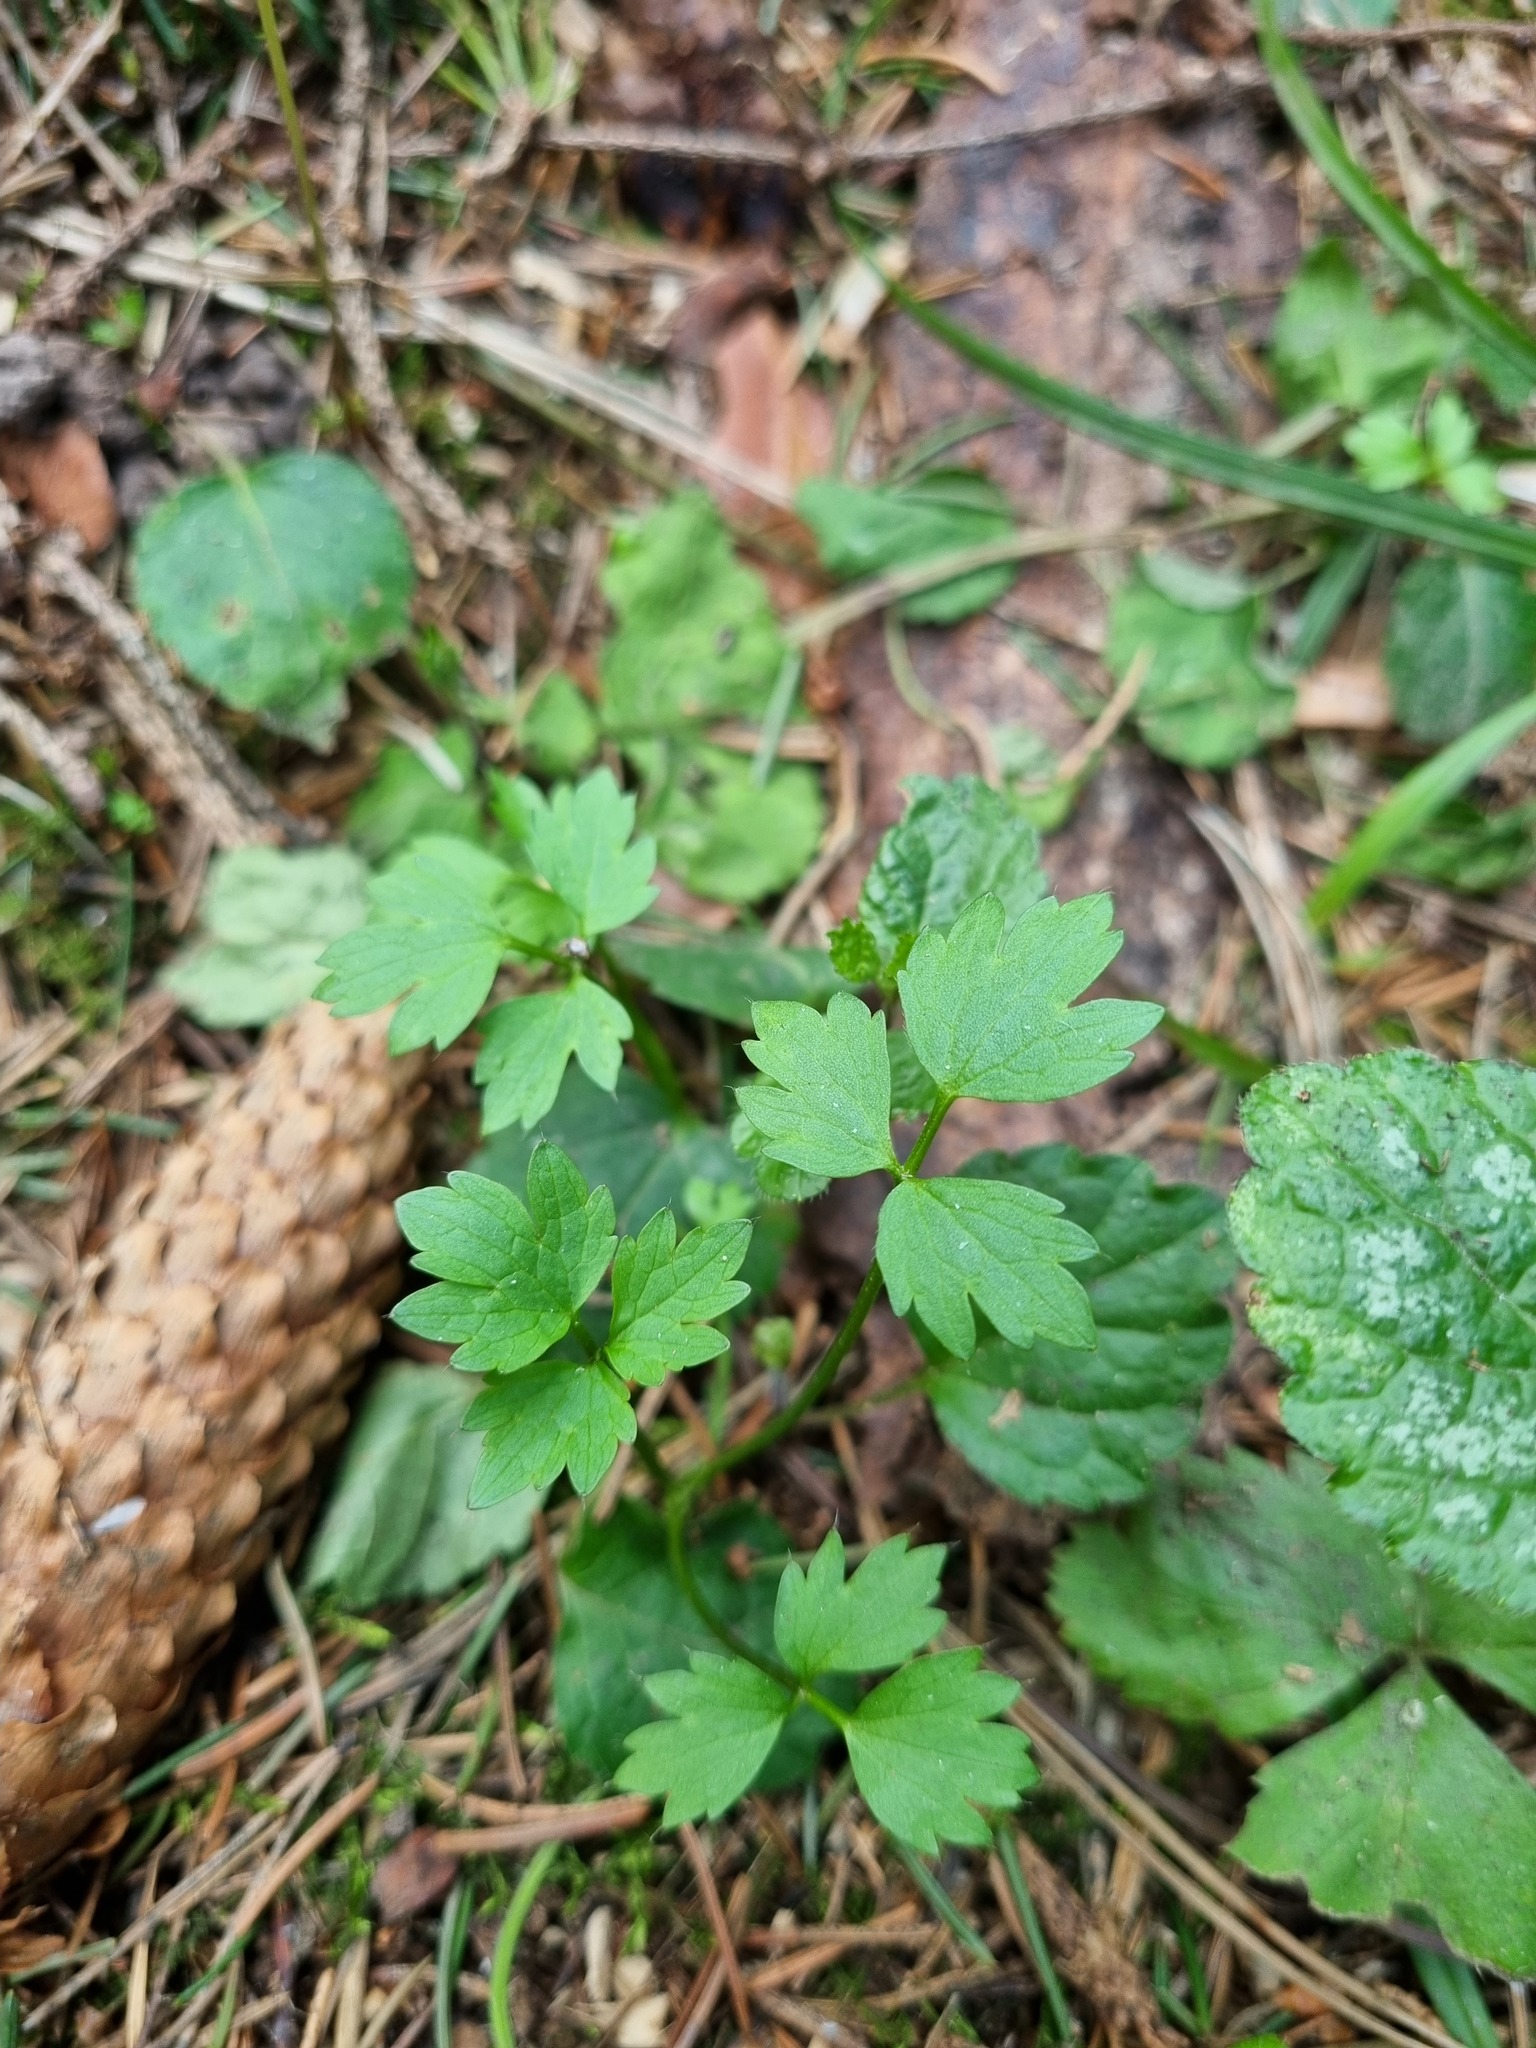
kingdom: Plantae
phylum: Tracheophyta
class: Magnoliopsida
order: Ranunculales
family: Ranunculaceae
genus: Ranunculus
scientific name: Ranunculus repens
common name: Creeping buttercup
